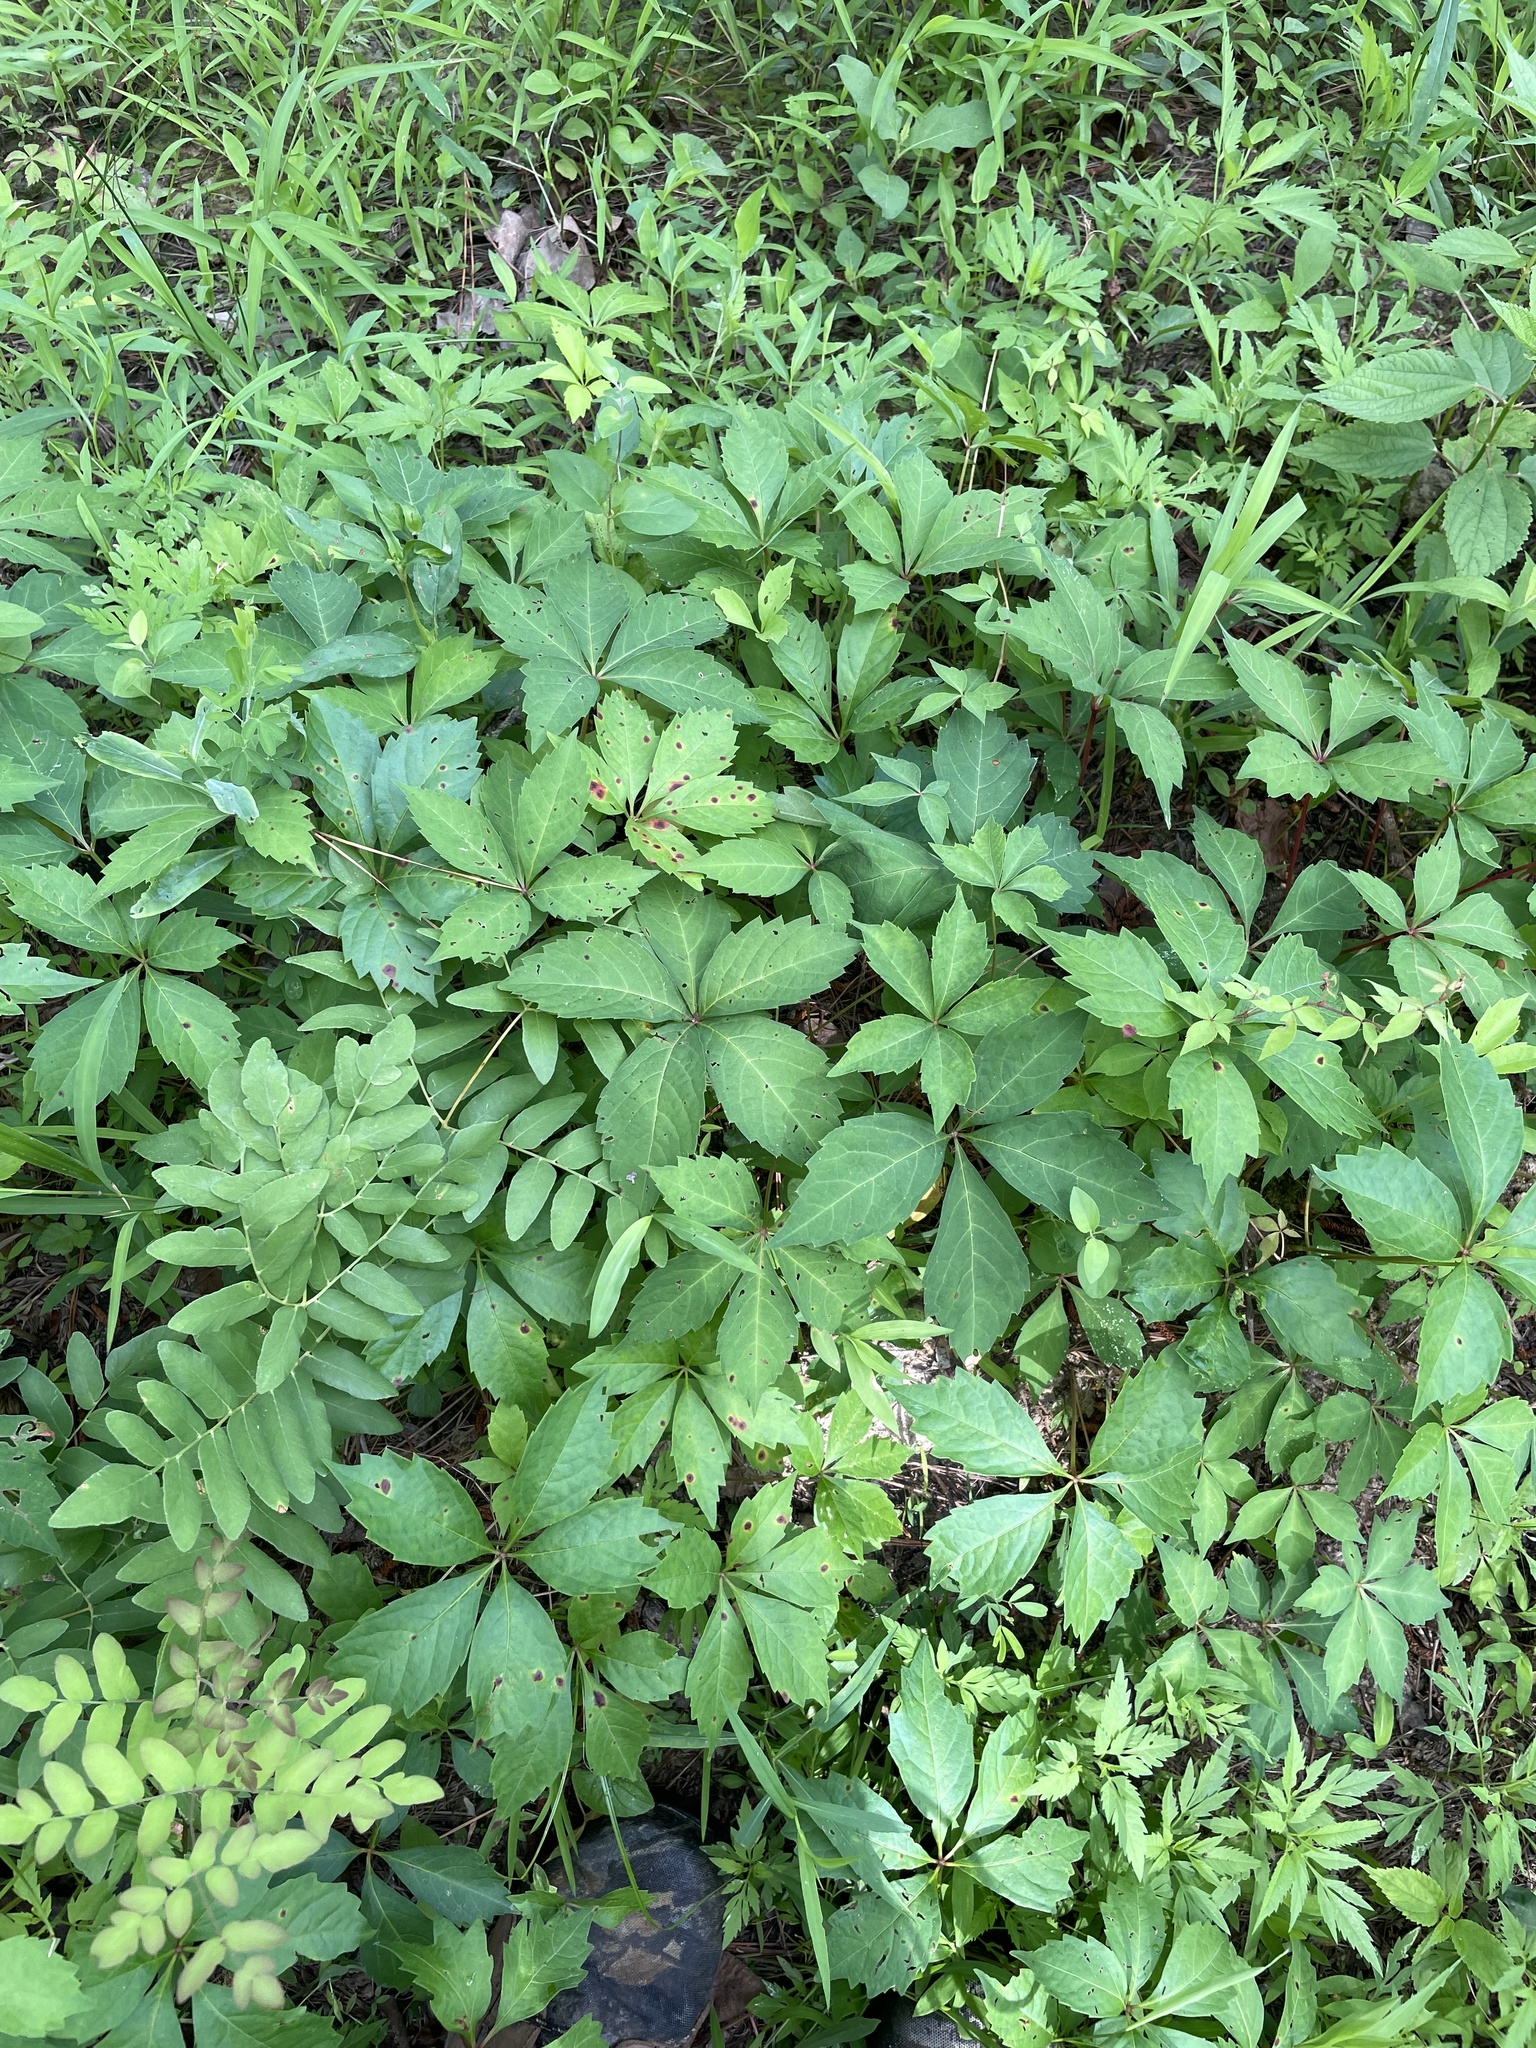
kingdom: Plantae
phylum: Tracheophyta
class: Magnoliopsida
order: Vitales
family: Vitaceae
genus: Parthenocissus
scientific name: Parthenocissus quinquefolia
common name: Virginia-creeper
